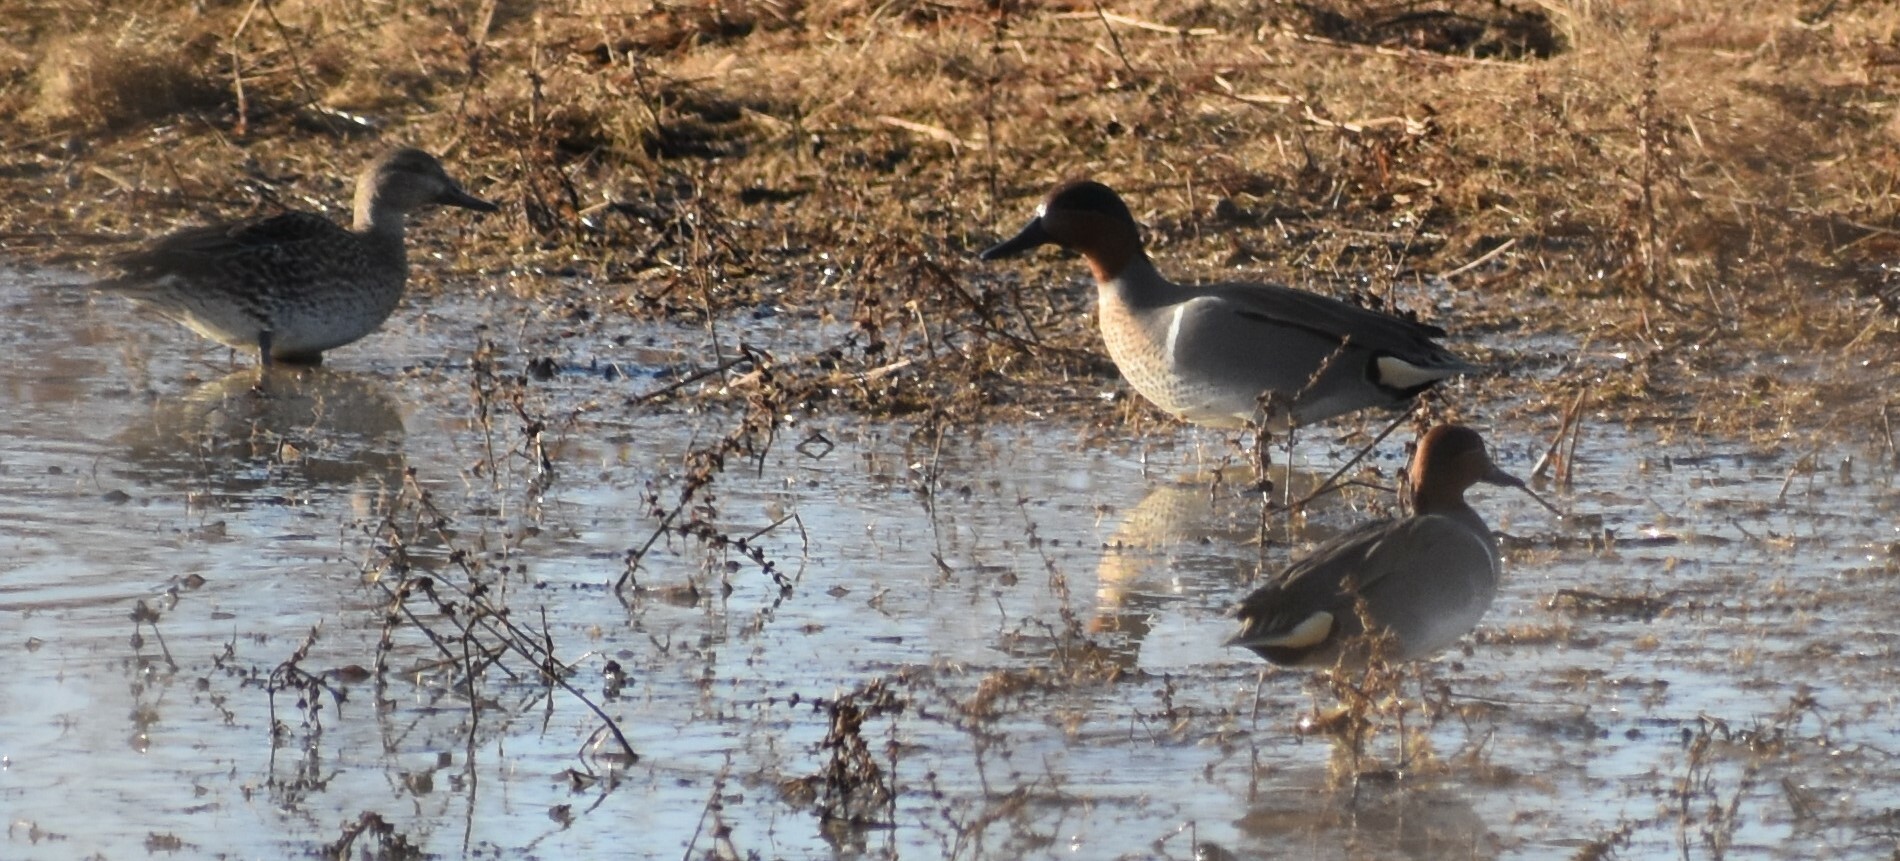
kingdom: Animalia
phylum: Chordata
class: Aves
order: Anseriformes
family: Anatidae
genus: Anas
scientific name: Anas crecca
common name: Eurasian teal
